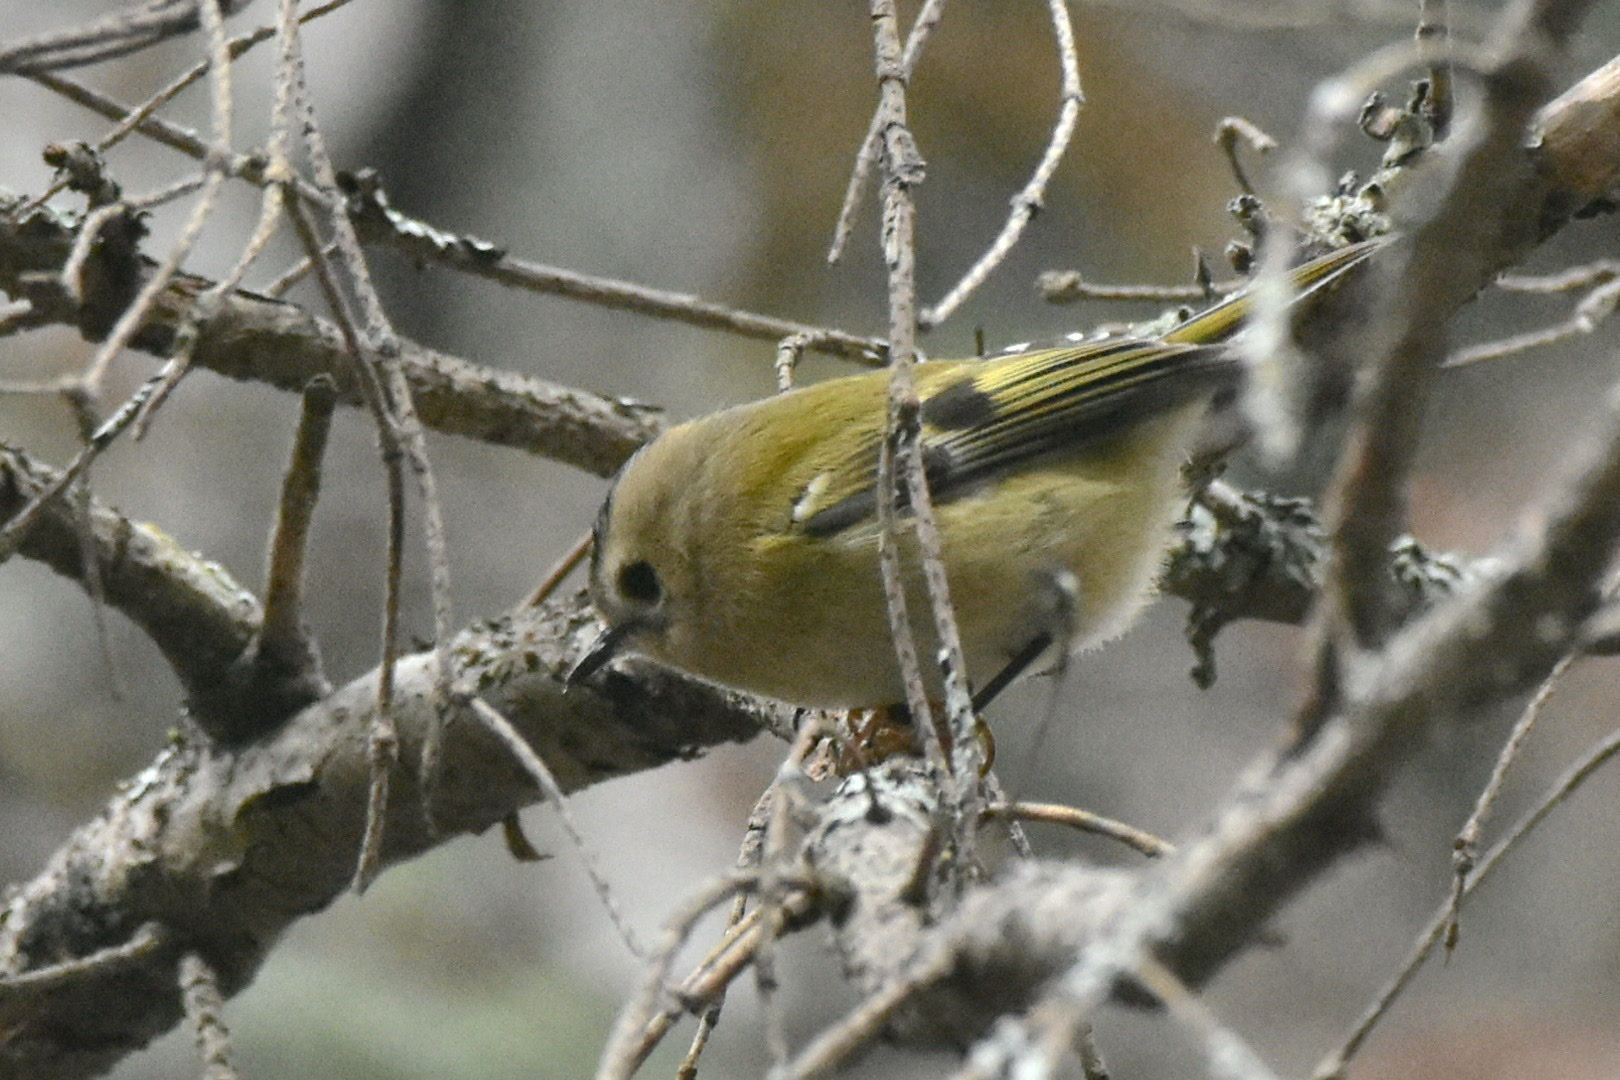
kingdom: Animalia
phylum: Chordata
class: Aves
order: Passeriformes
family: Regulidae
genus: Regulus
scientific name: Regulus regulus
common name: Goldcrest
